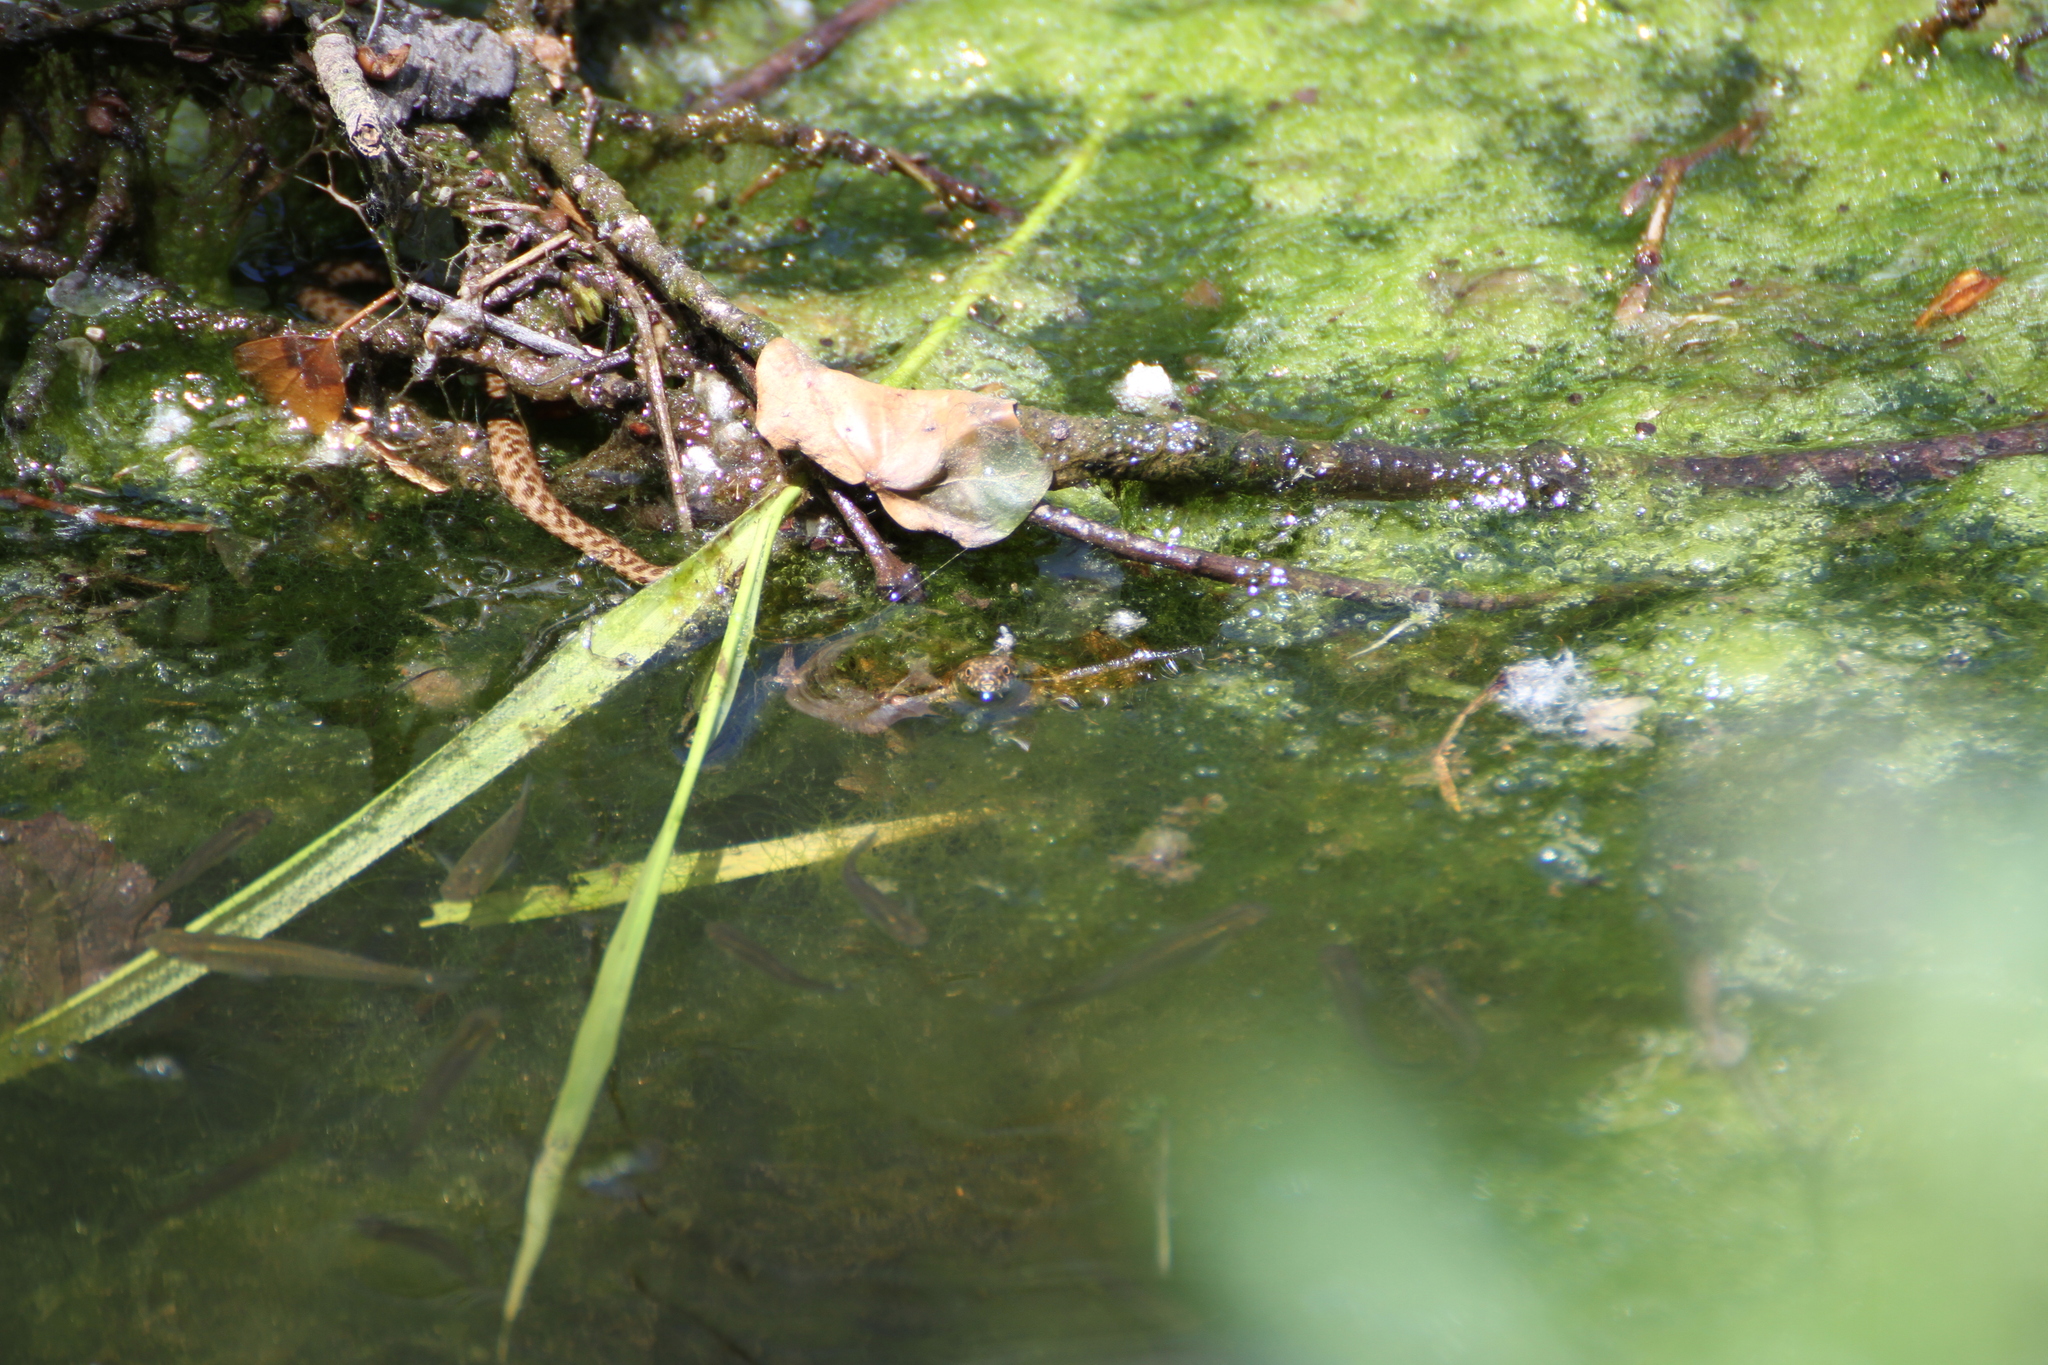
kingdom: Animalia
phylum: Chordata
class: Squamata
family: Colubridae
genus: Natrix
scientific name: Natrix maura
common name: Viperine water snake
